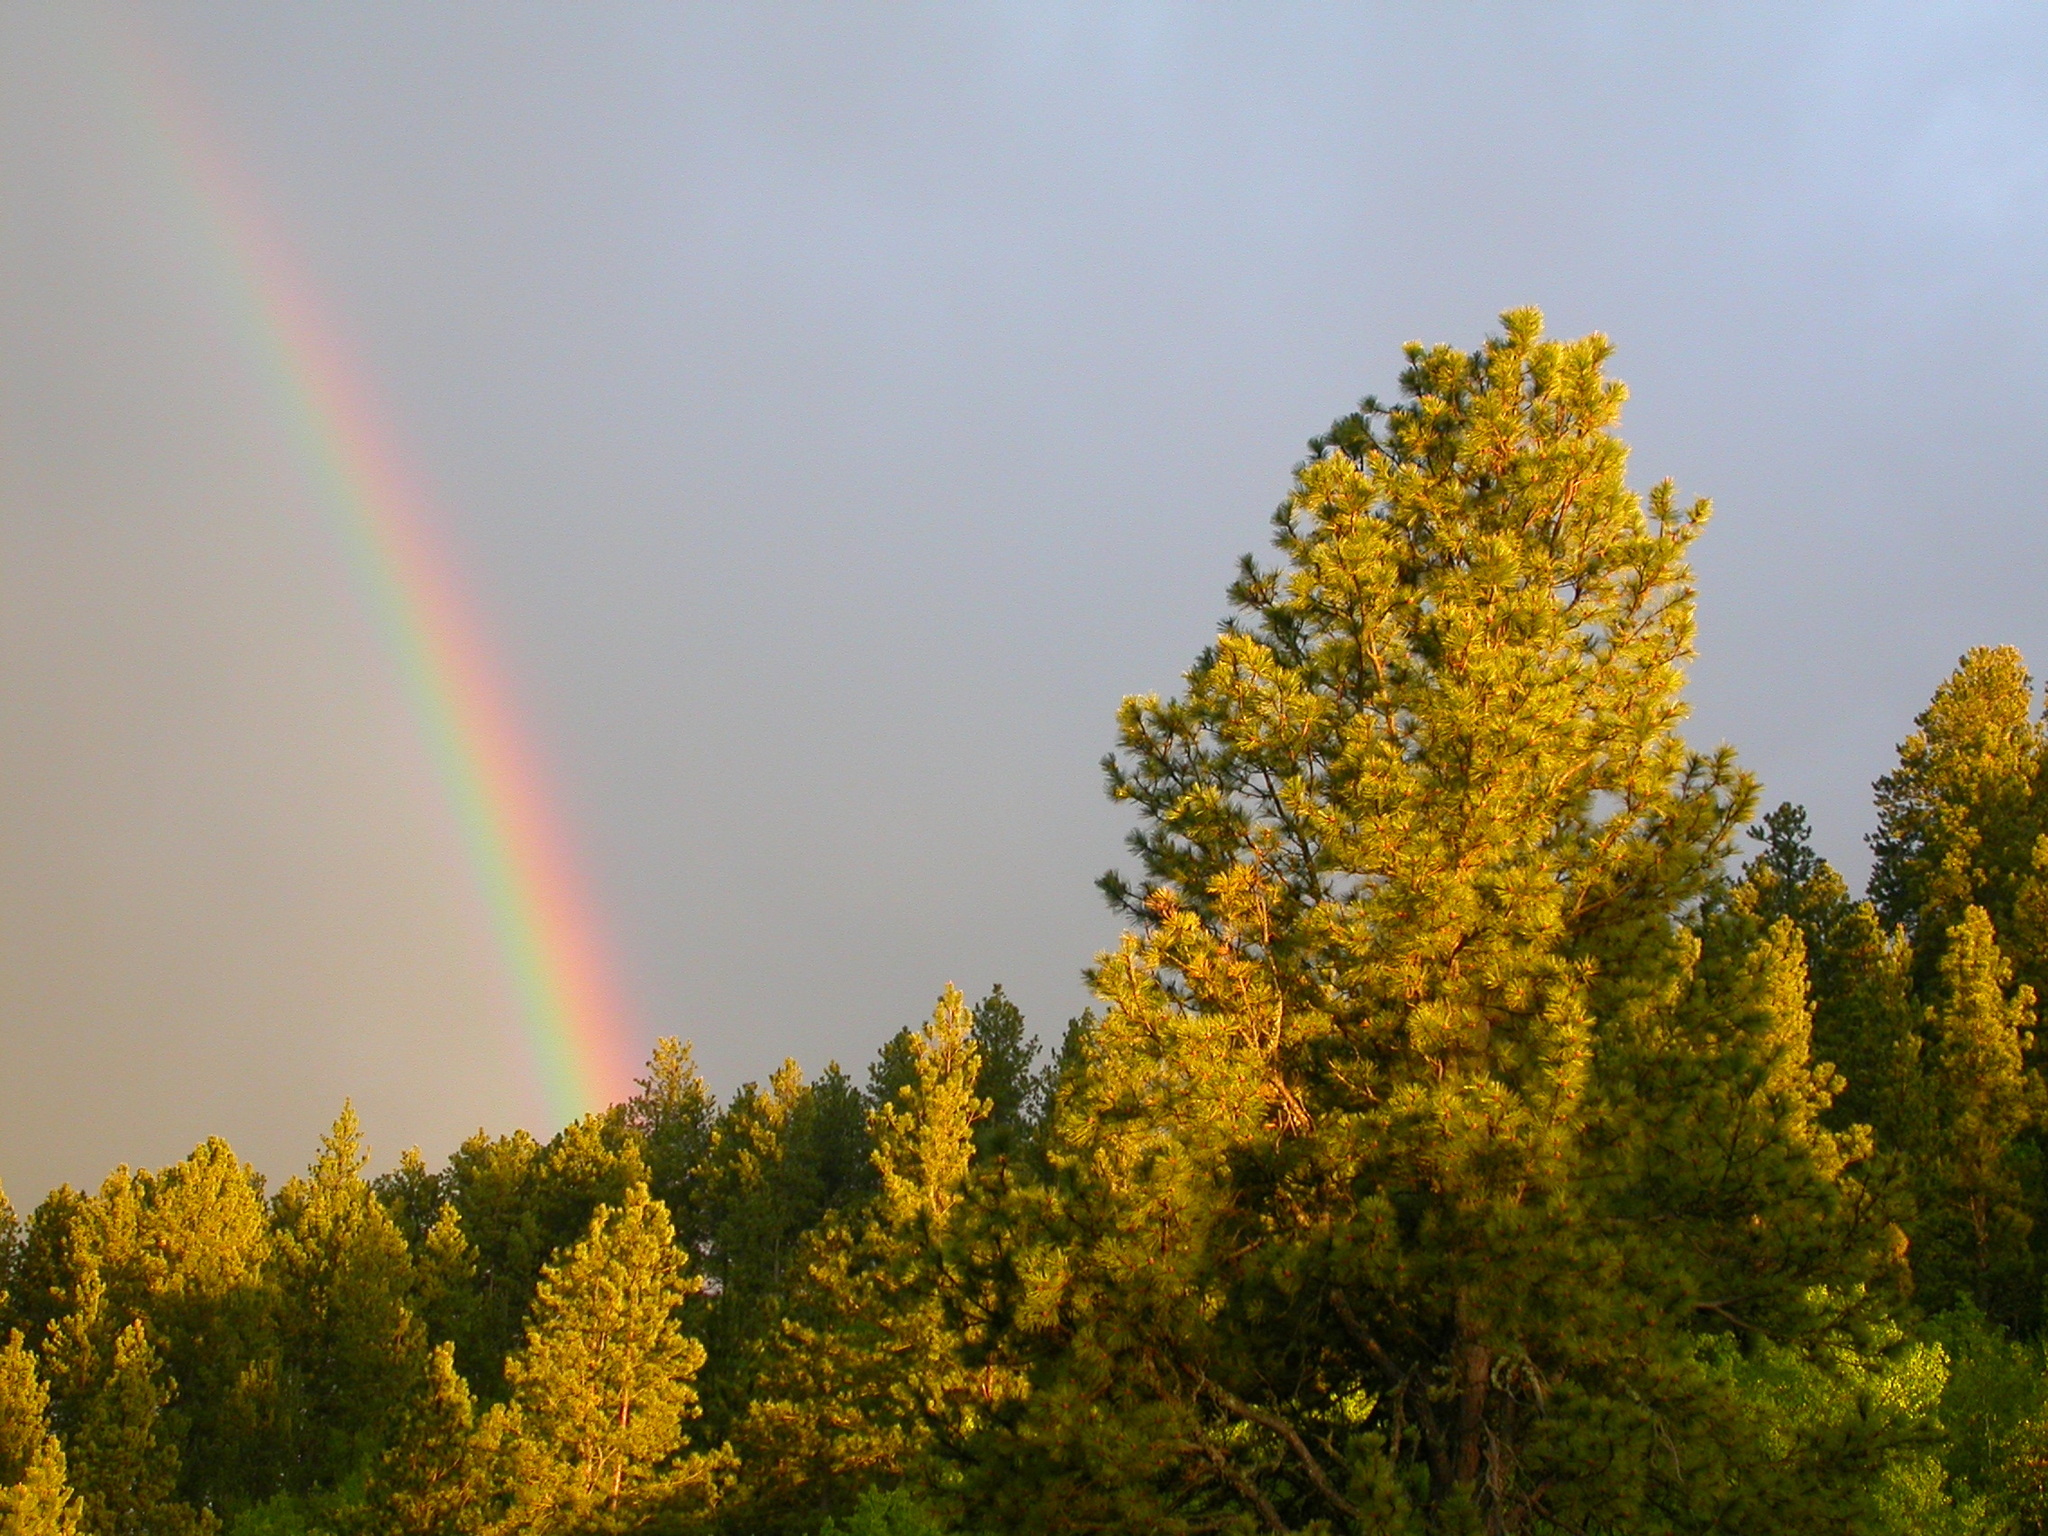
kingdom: Plantae
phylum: Tracheophyta
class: Pinopsida
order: Pinales
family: Pinaceae
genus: Pinus
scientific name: Pinus ponderosa
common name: Western yellow-pine
